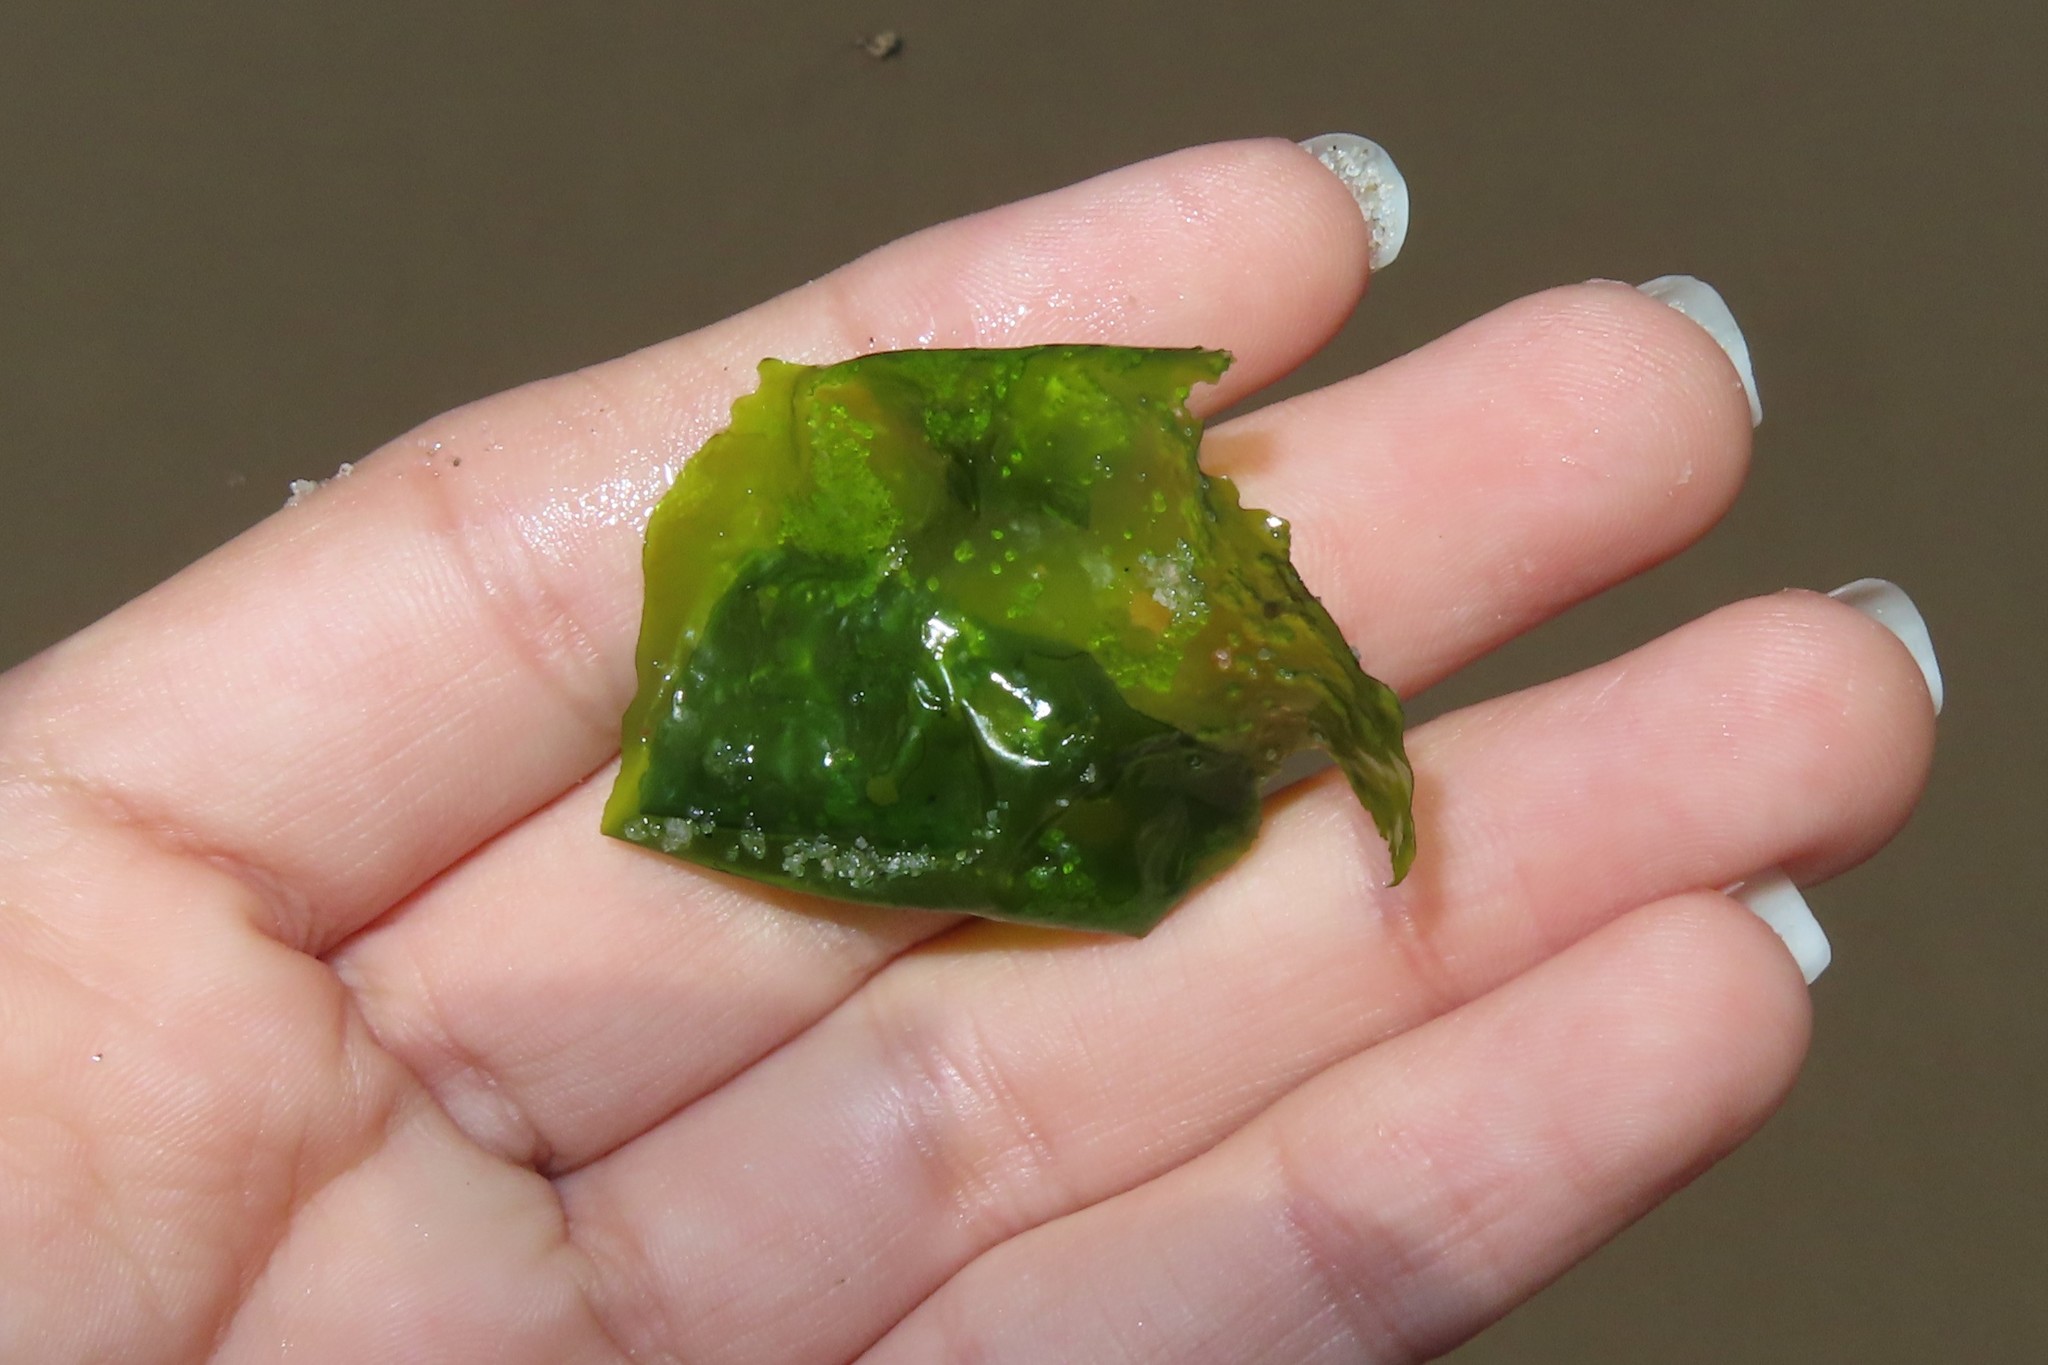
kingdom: Plantae
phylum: Chlorophyta
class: Ulvophyceae
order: Ulvales
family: Ulvaceae
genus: Ulva
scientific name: Ulva lactuca
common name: Sea lettuce
